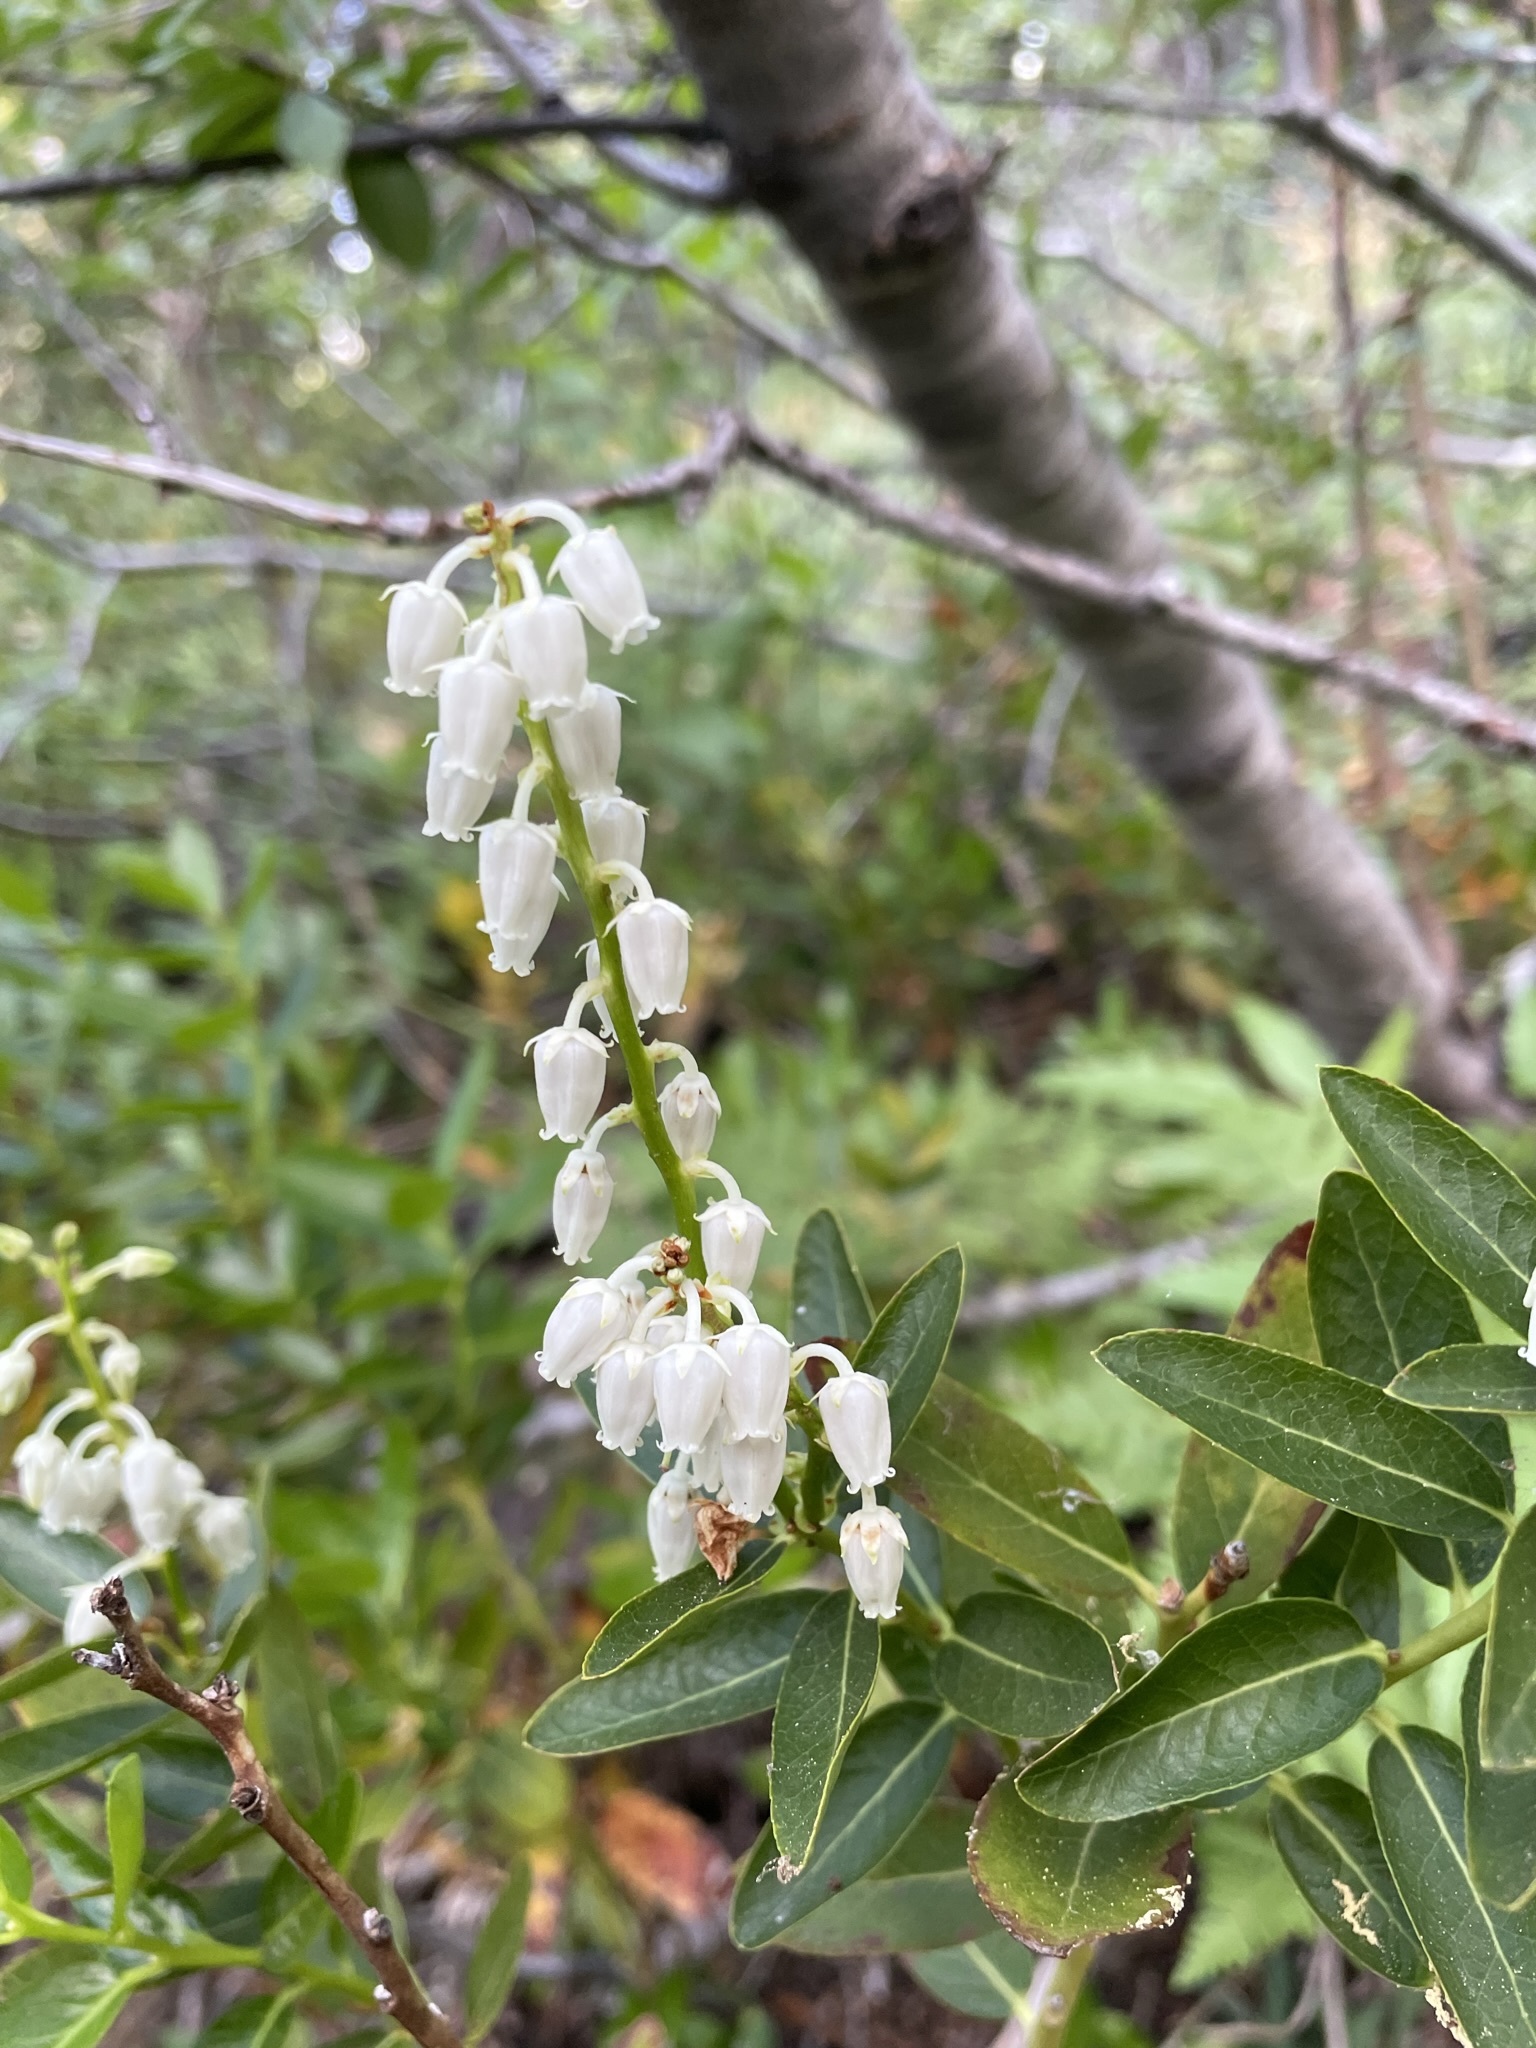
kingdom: Plantae
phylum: Tracheophyta
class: Magnoliopsida
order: Ericales
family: Ericaceae
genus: Leucothoe
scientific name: Leucothoe davisiae
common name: Sierra-laurel
